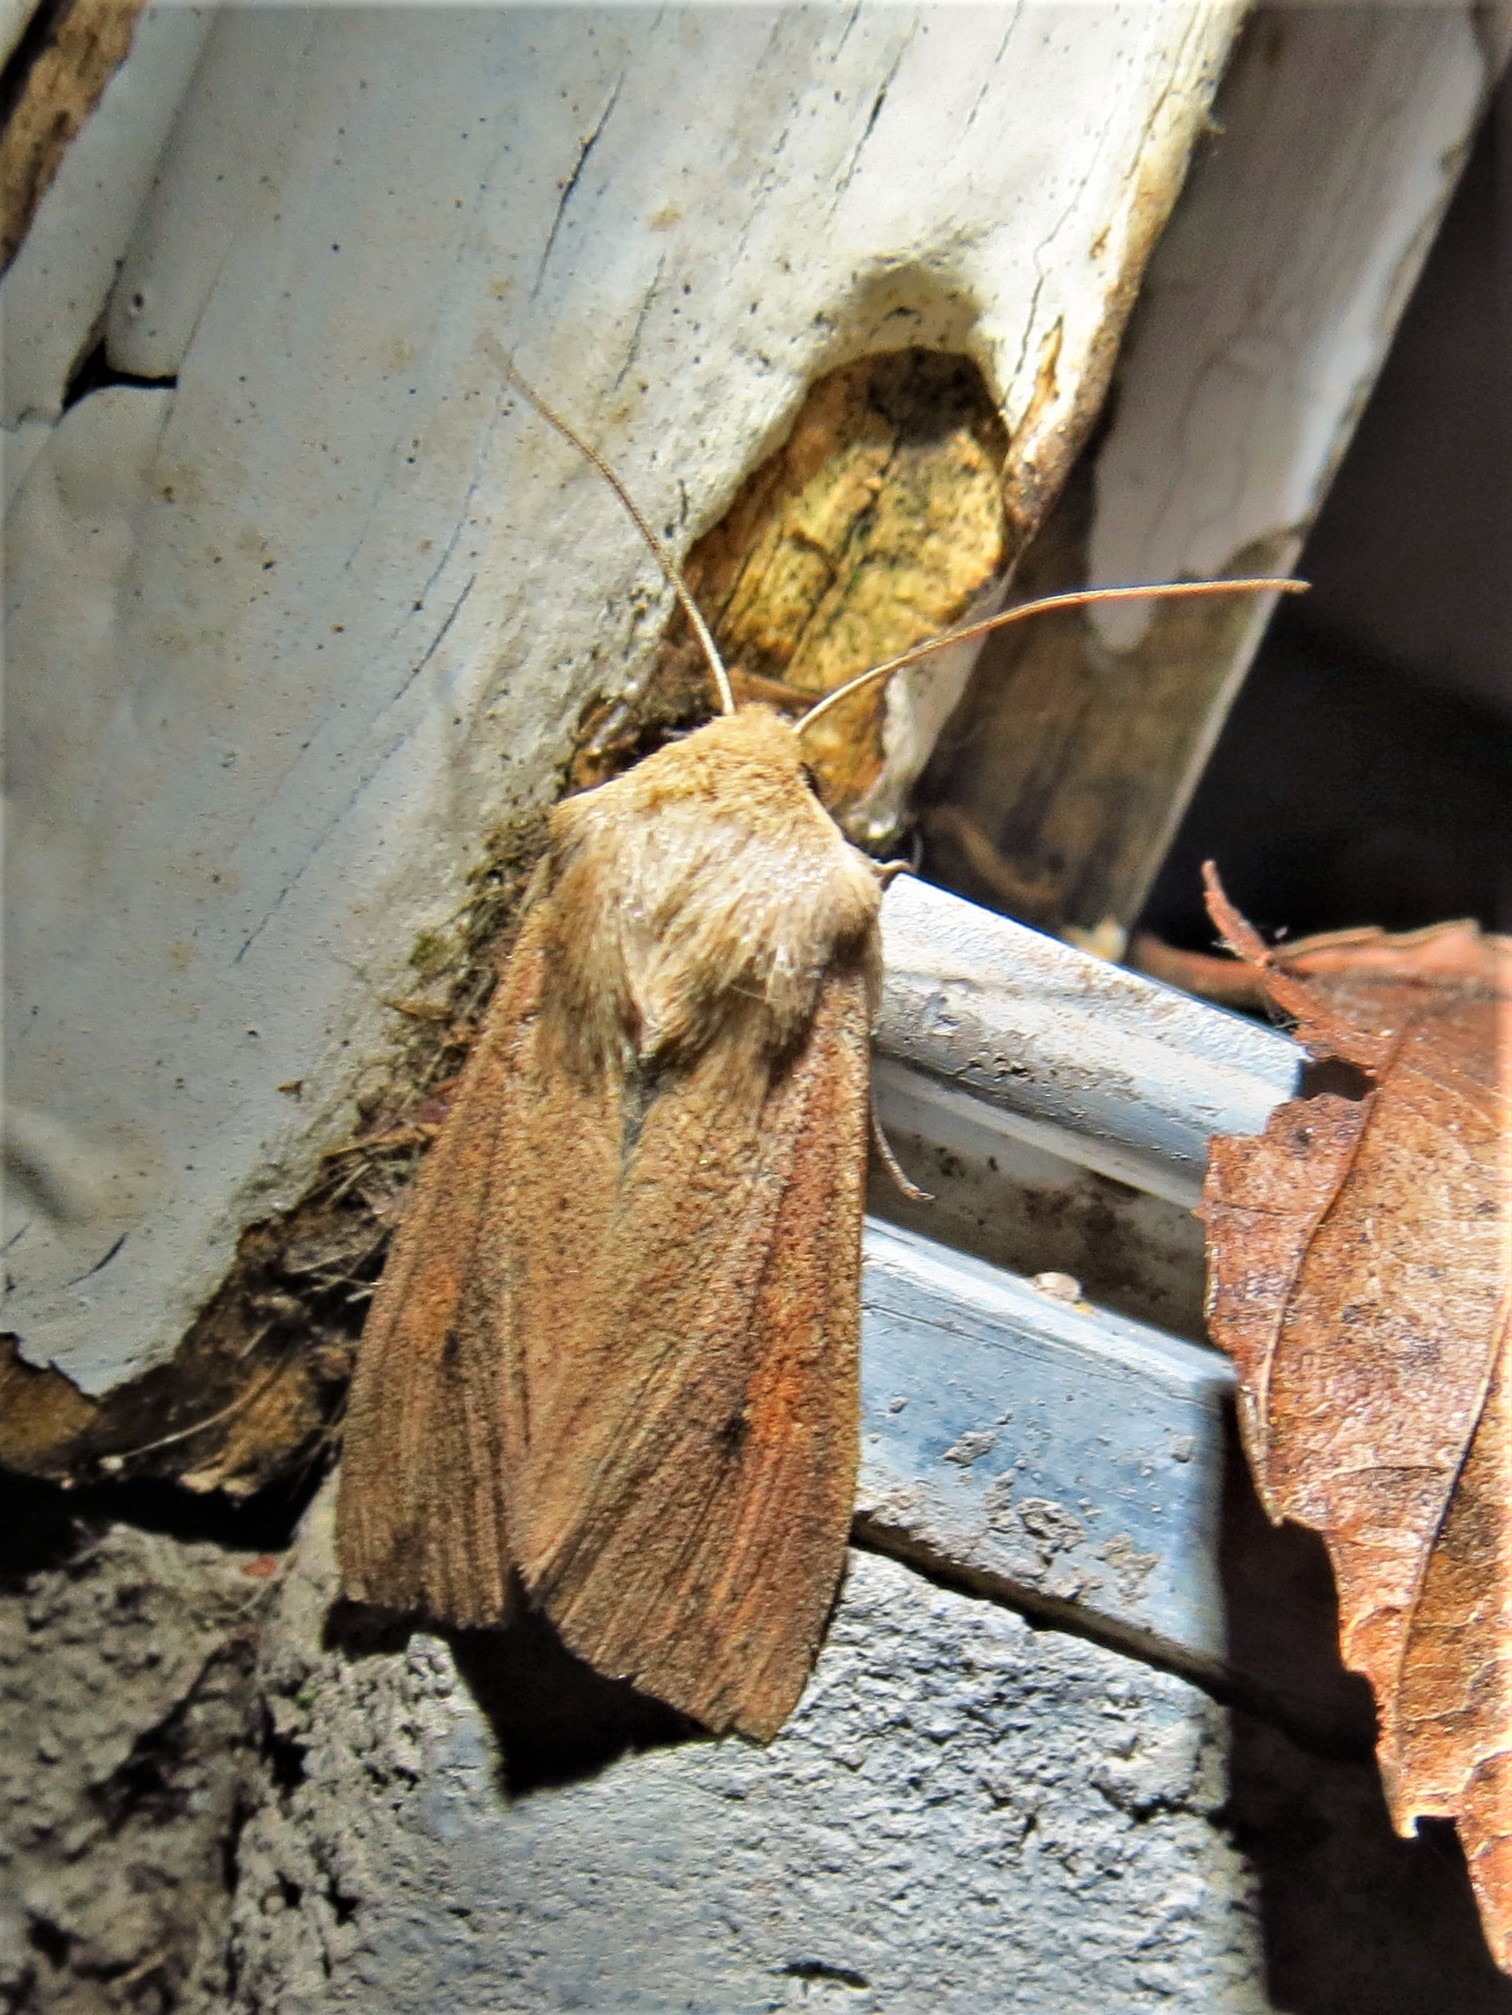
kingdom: Animalia
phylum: Arthropoda
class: Insecta
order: Lepidoptera
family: Noctuidae
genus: Mythimna
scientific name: Mythimna unipuncta
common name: White-speck
